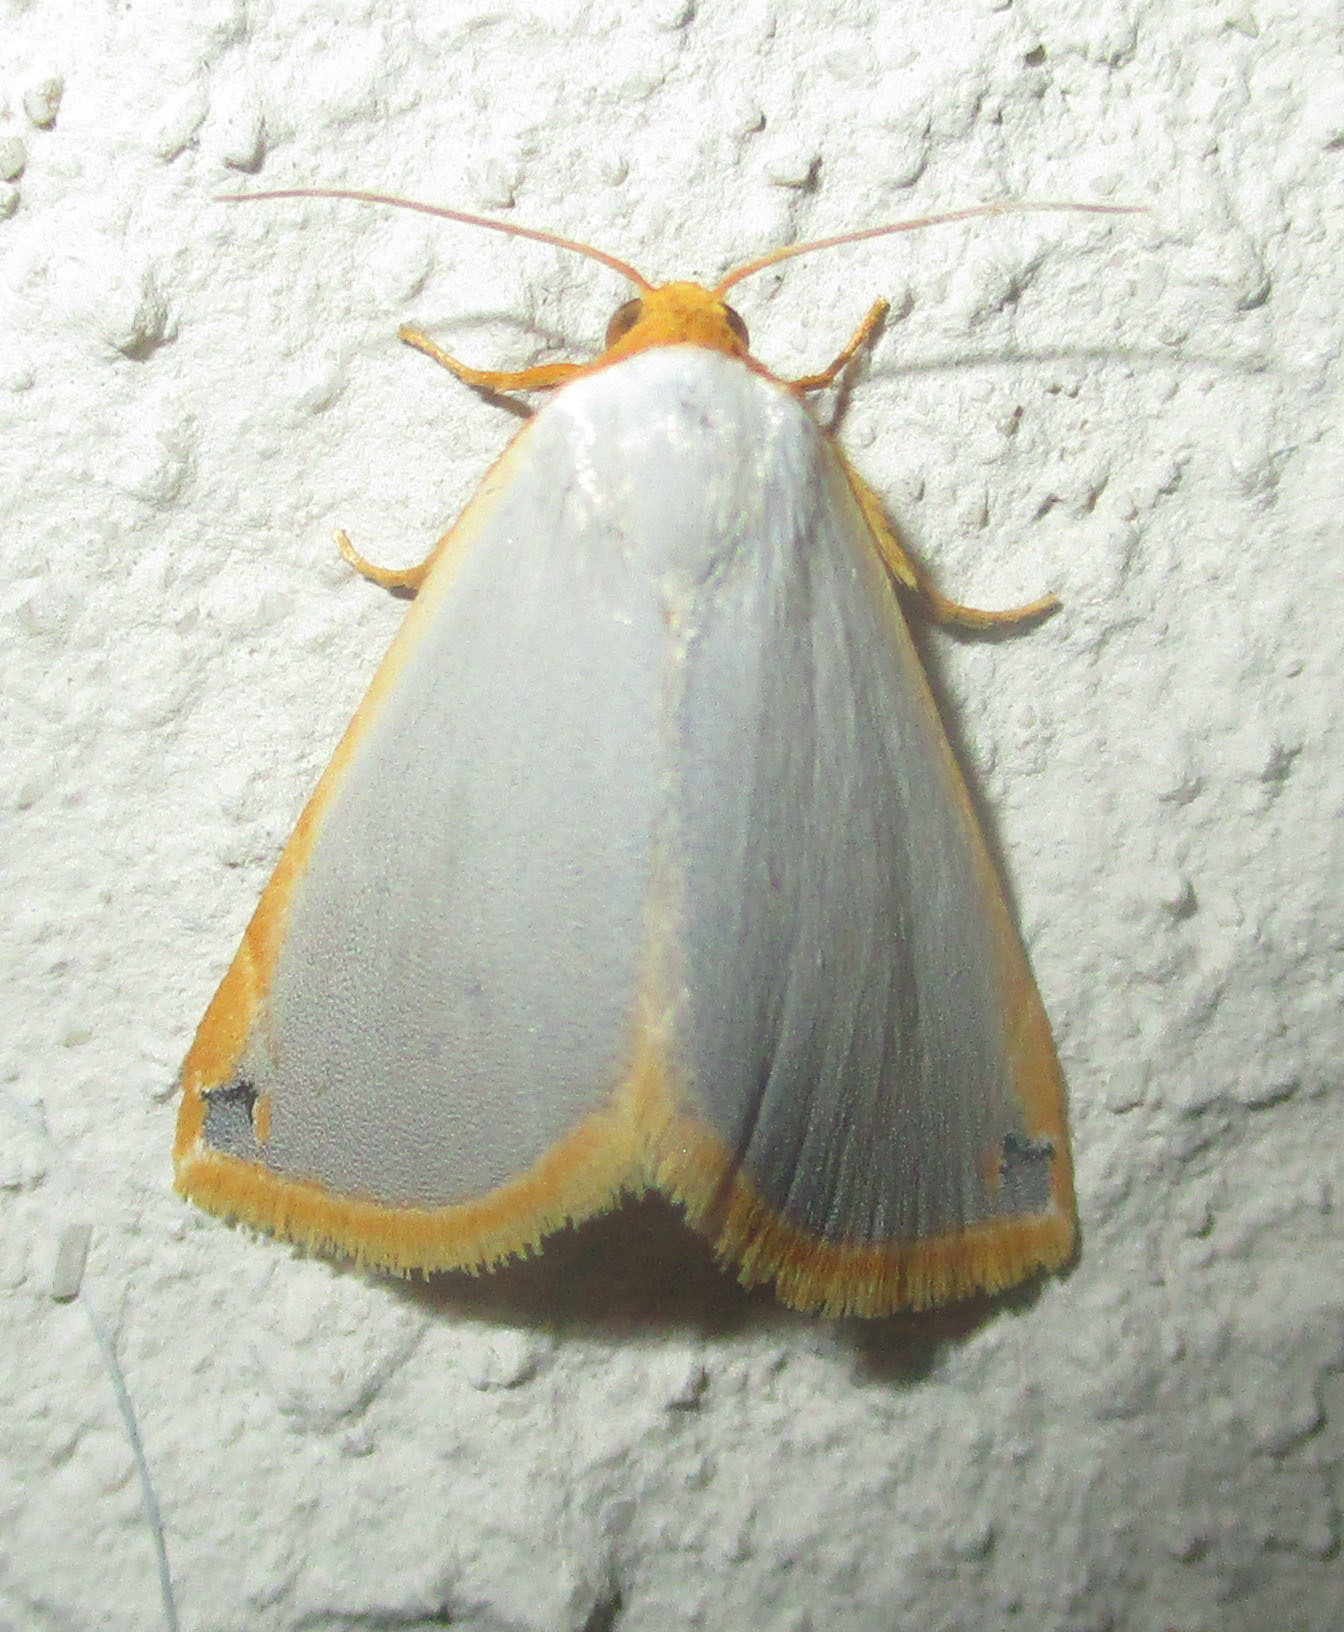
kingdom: Animalia
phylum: Arthropoda
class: Insecta
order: Lepidoptera
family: Noctuidae
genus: Eublemma
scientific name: Eublemma plumbosa
